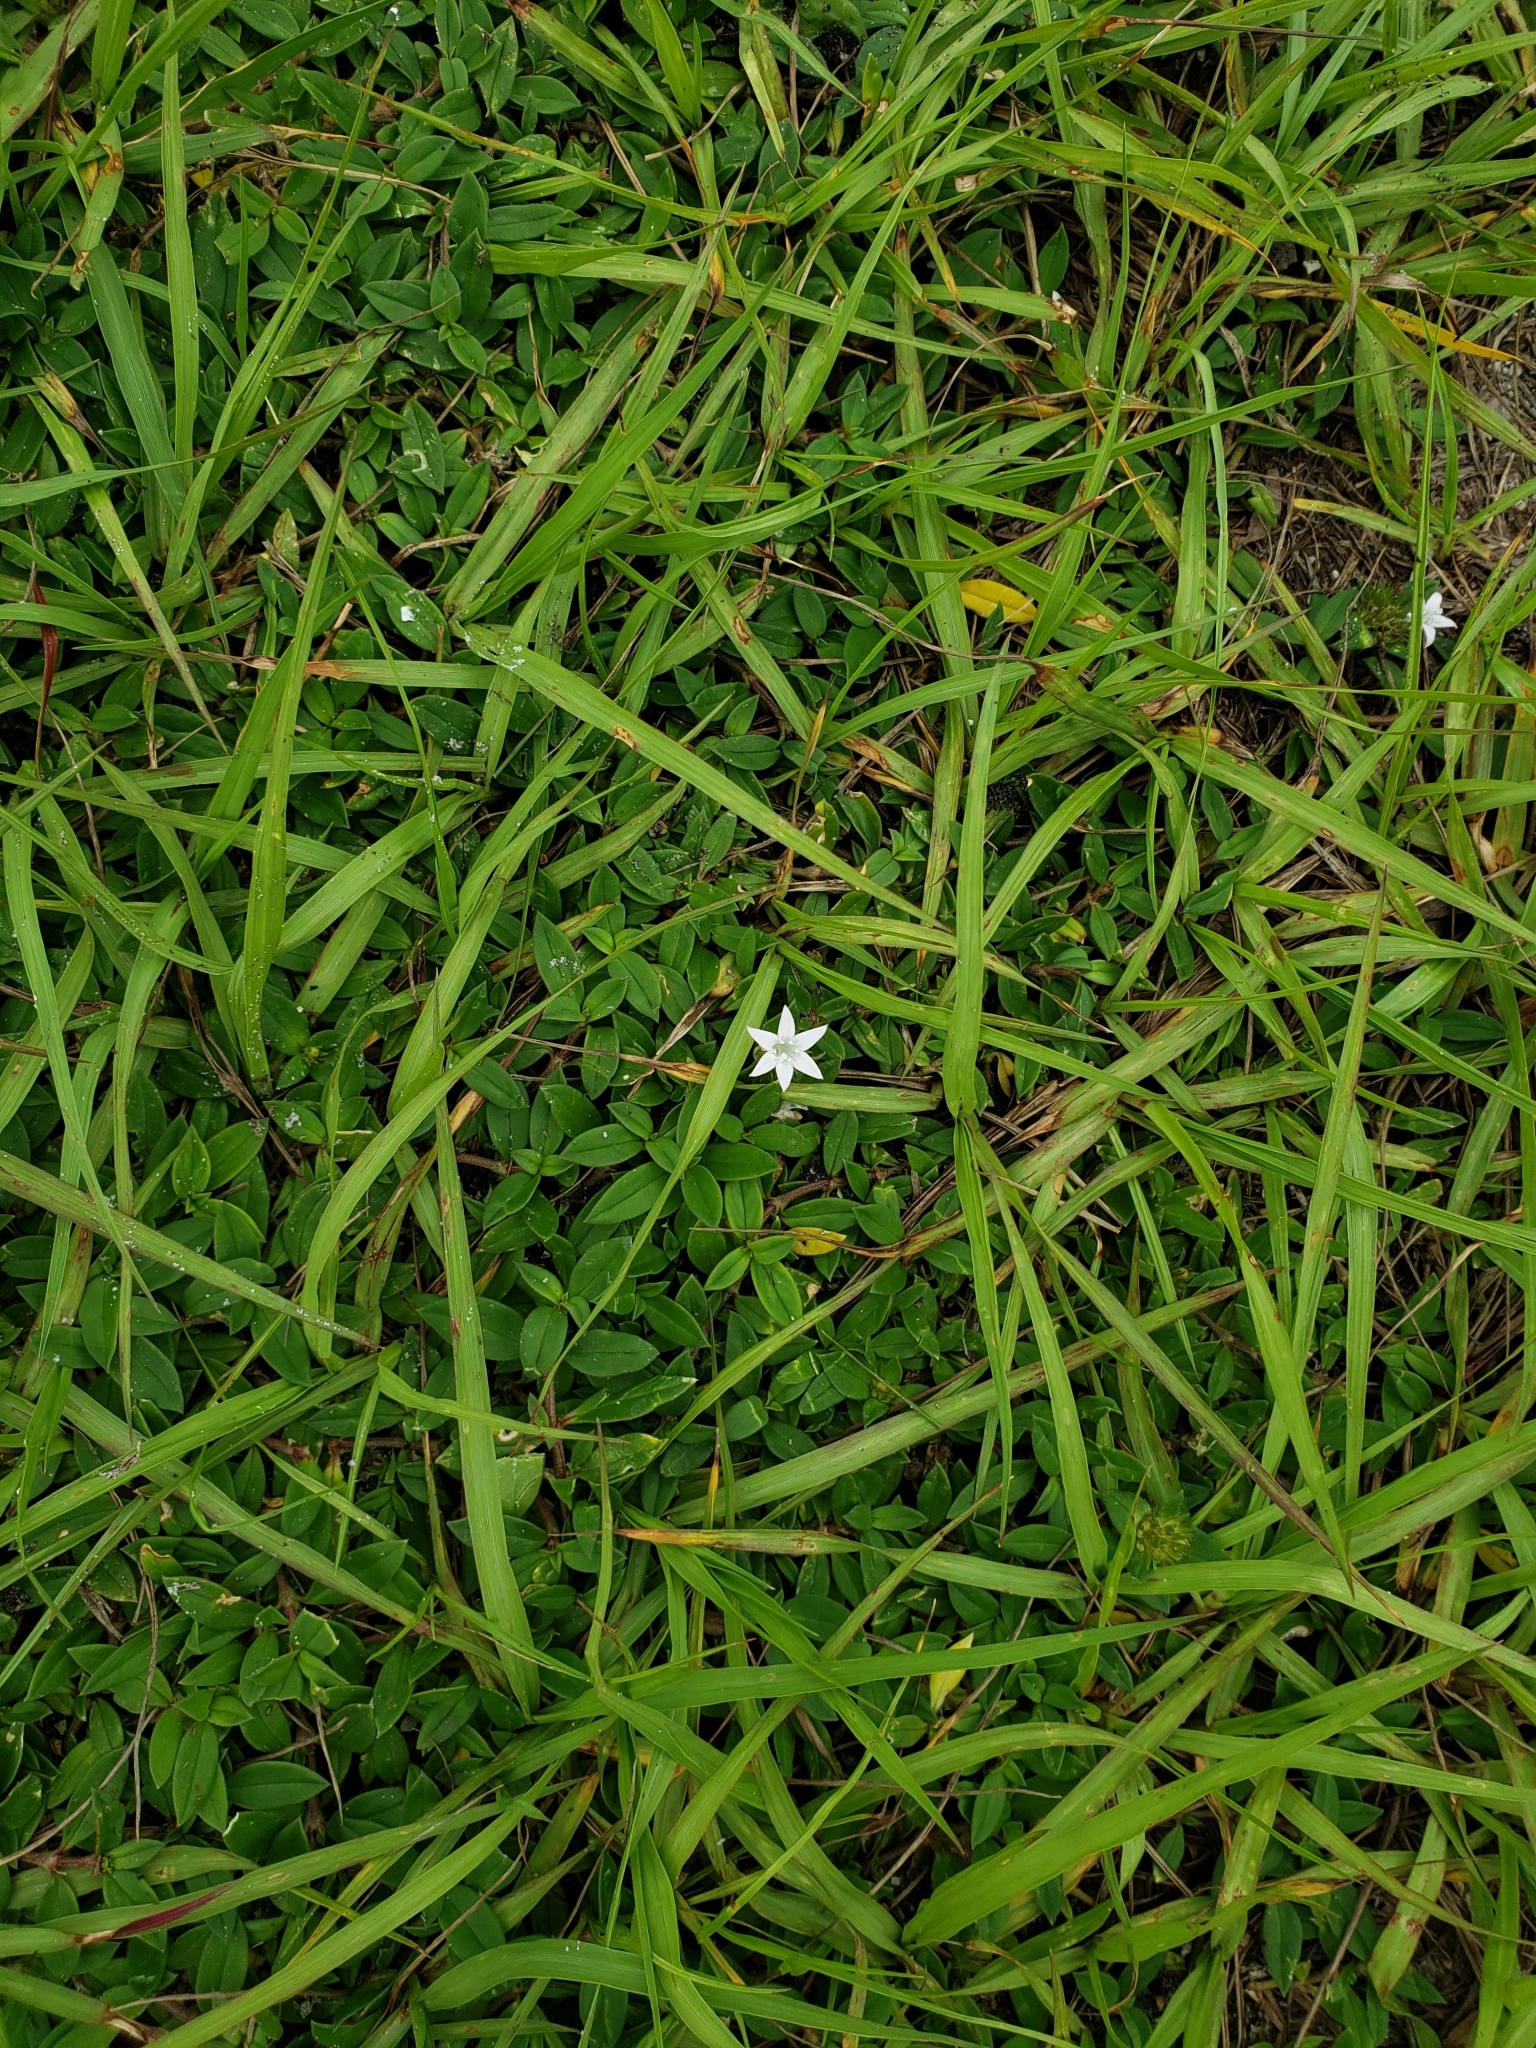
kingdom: Plantae
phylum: Tracheophyta
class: Magnoliopsida
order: Gentianales
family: Rubiaceae
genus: Richardia
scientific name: Richardia grandiflora
